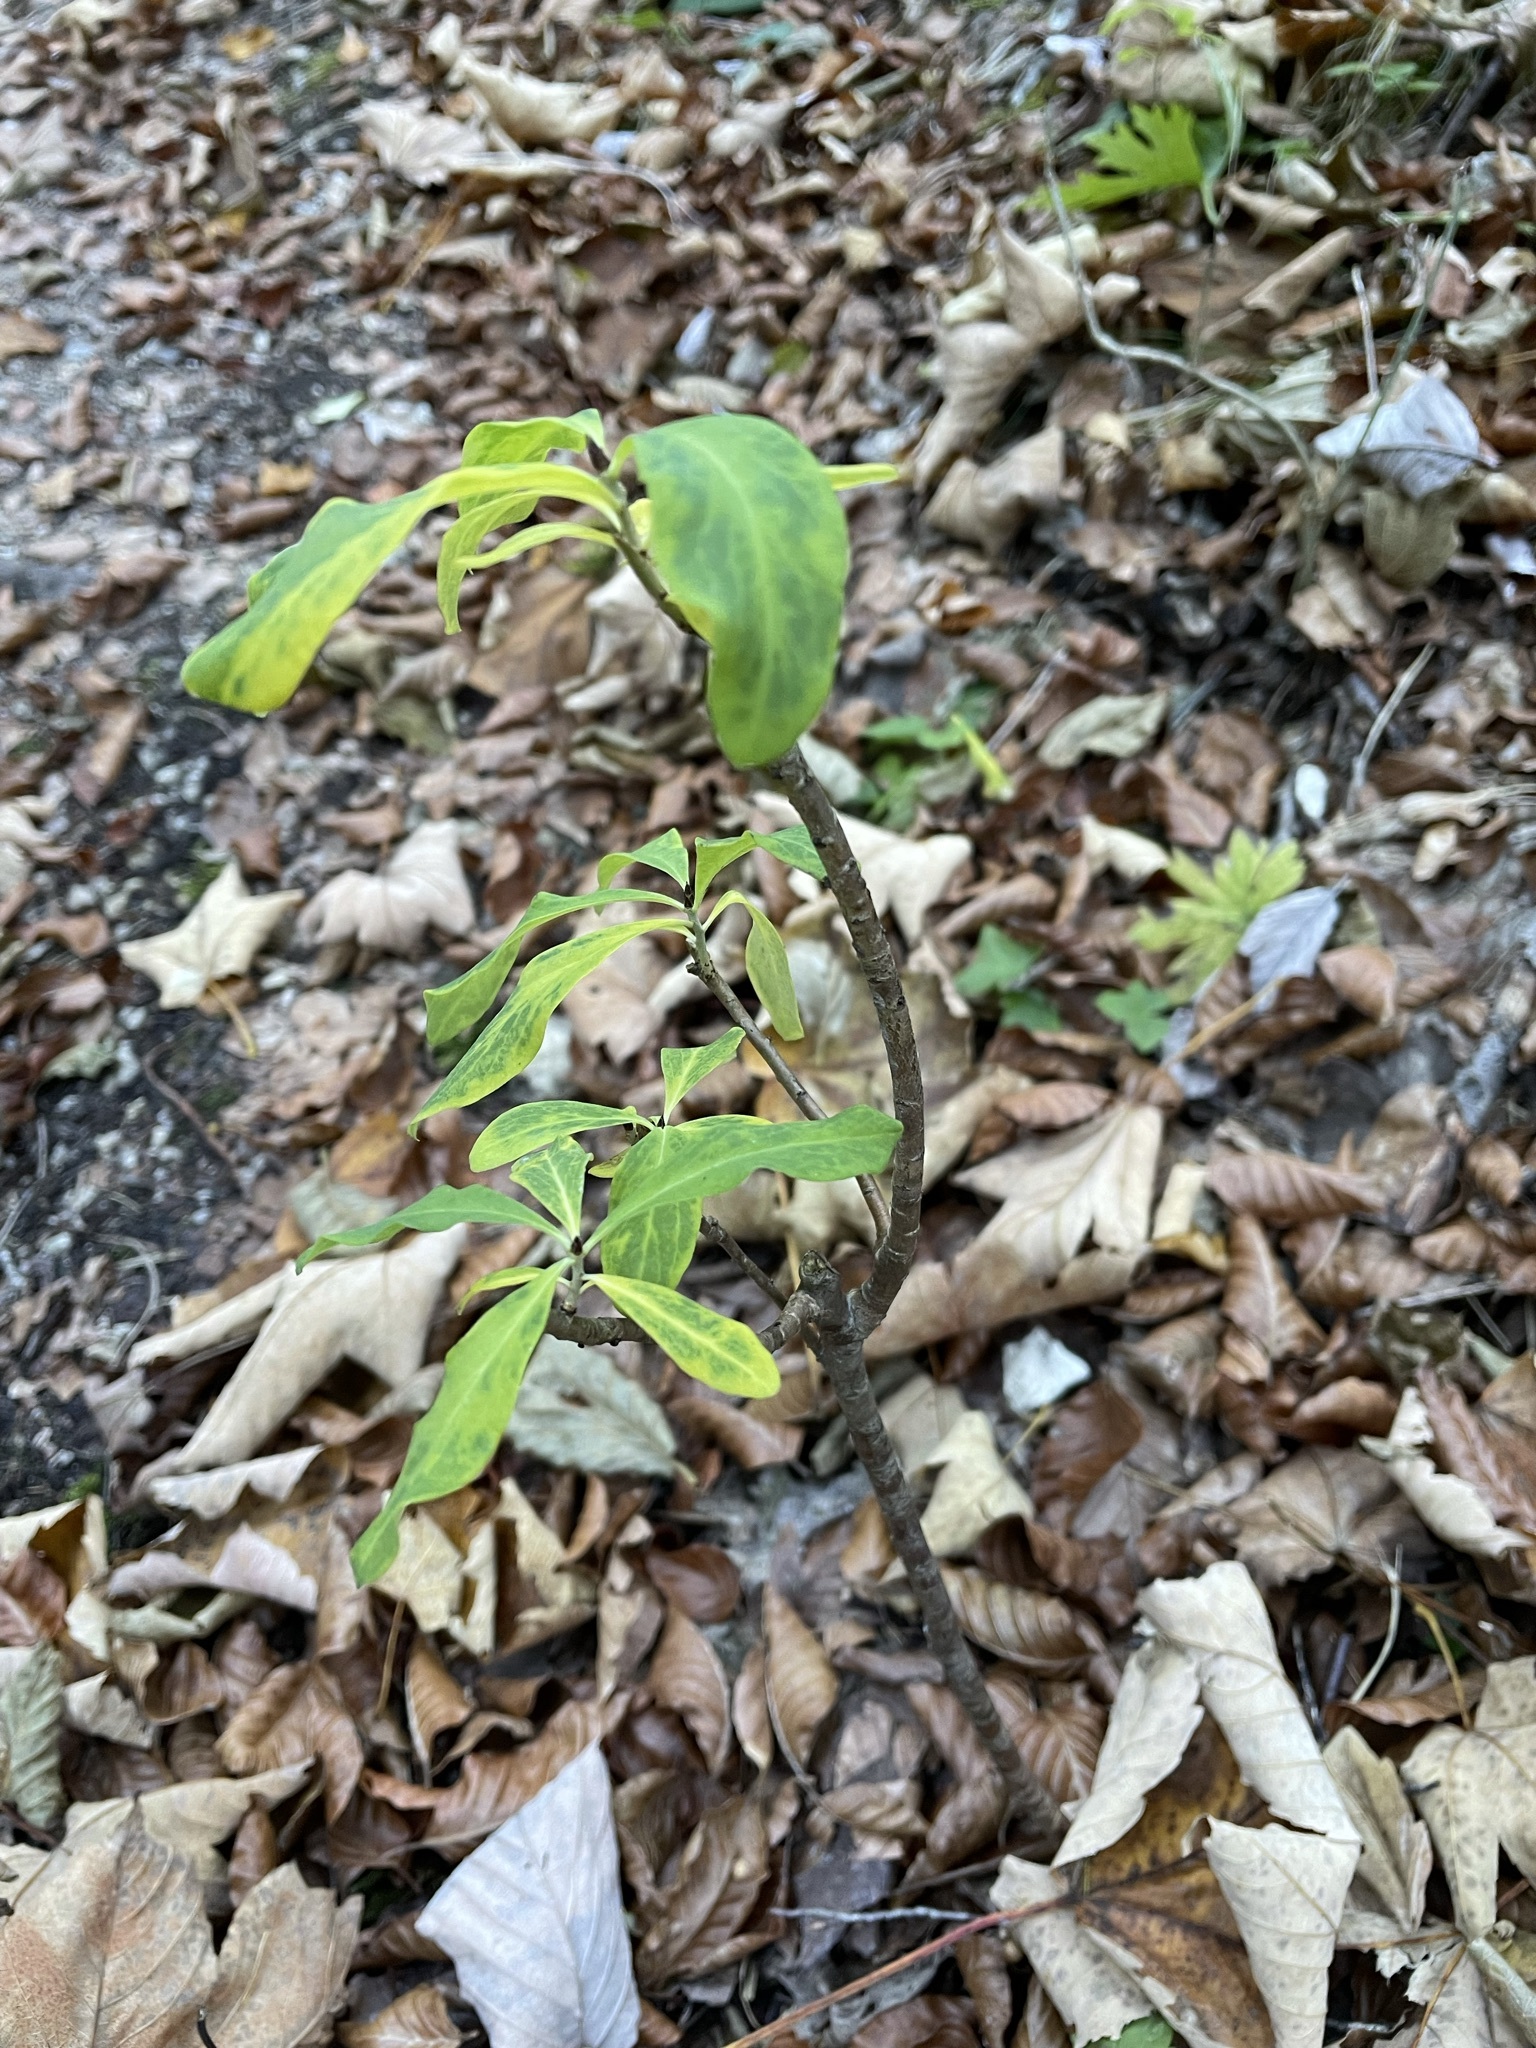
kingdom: Plantae
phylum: Tracheophyta
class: Magnoliopsida
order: Malvales
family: Thymelaeaceae
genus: Daphne
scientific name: Daphne mezereum
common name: Mezereon
